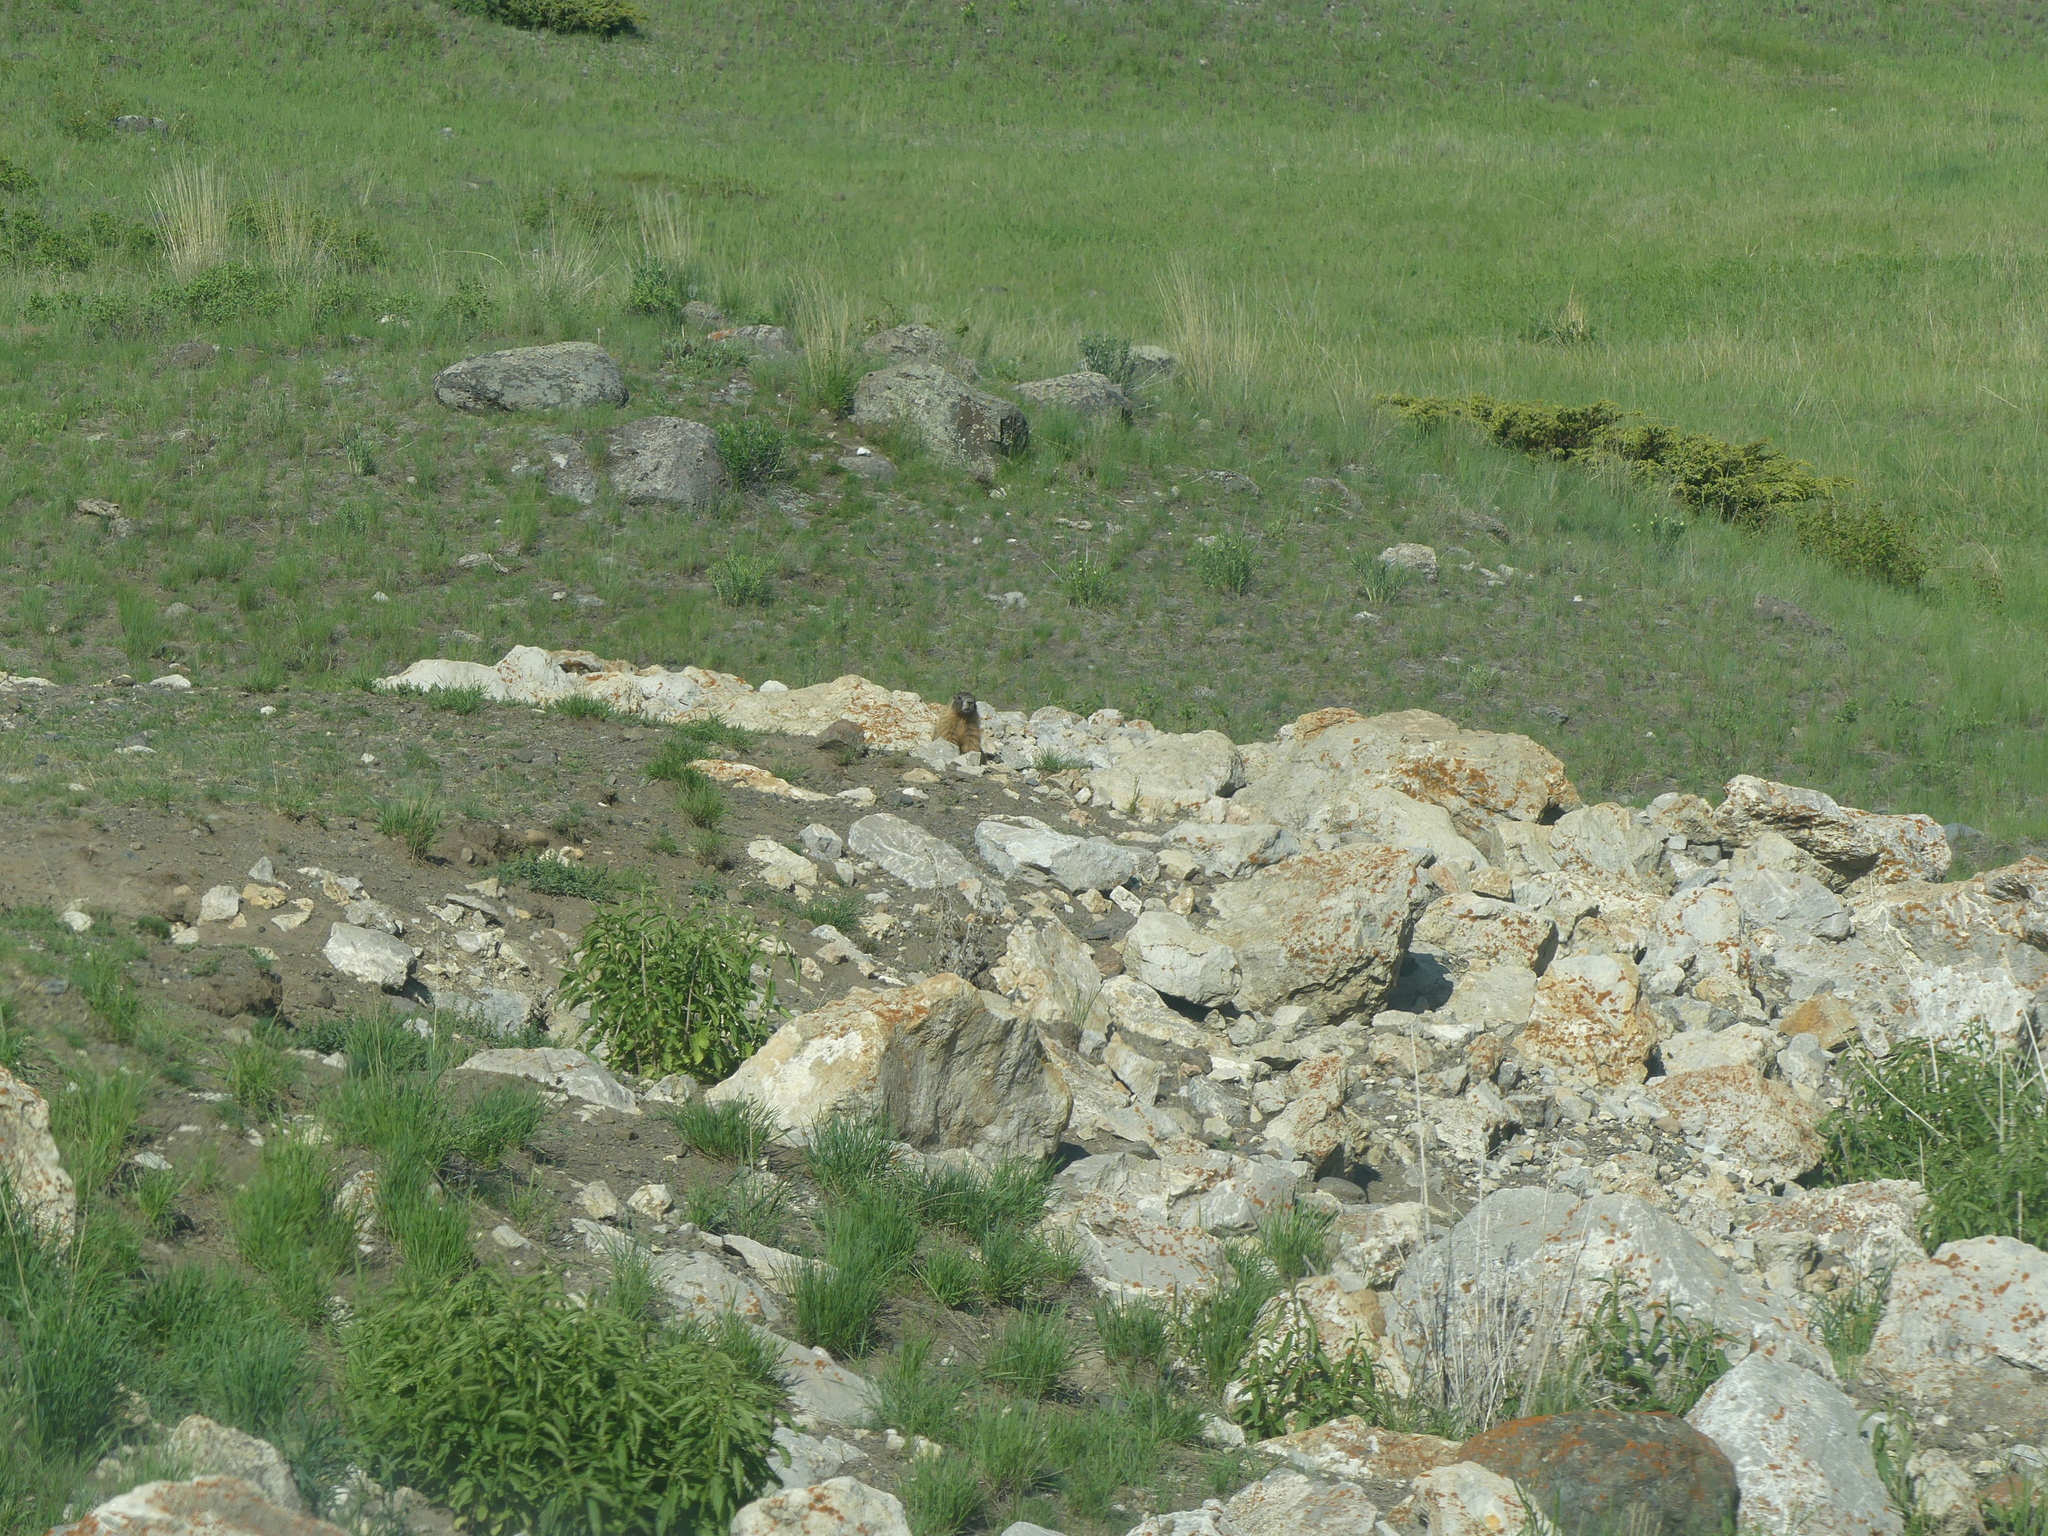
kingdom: Animalia
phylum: Chordata
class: Mammalia
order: Rodentia
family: Sciuridae
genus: Marmota
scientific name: Marmota flaviventris
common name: Yellow-bellied marmot
